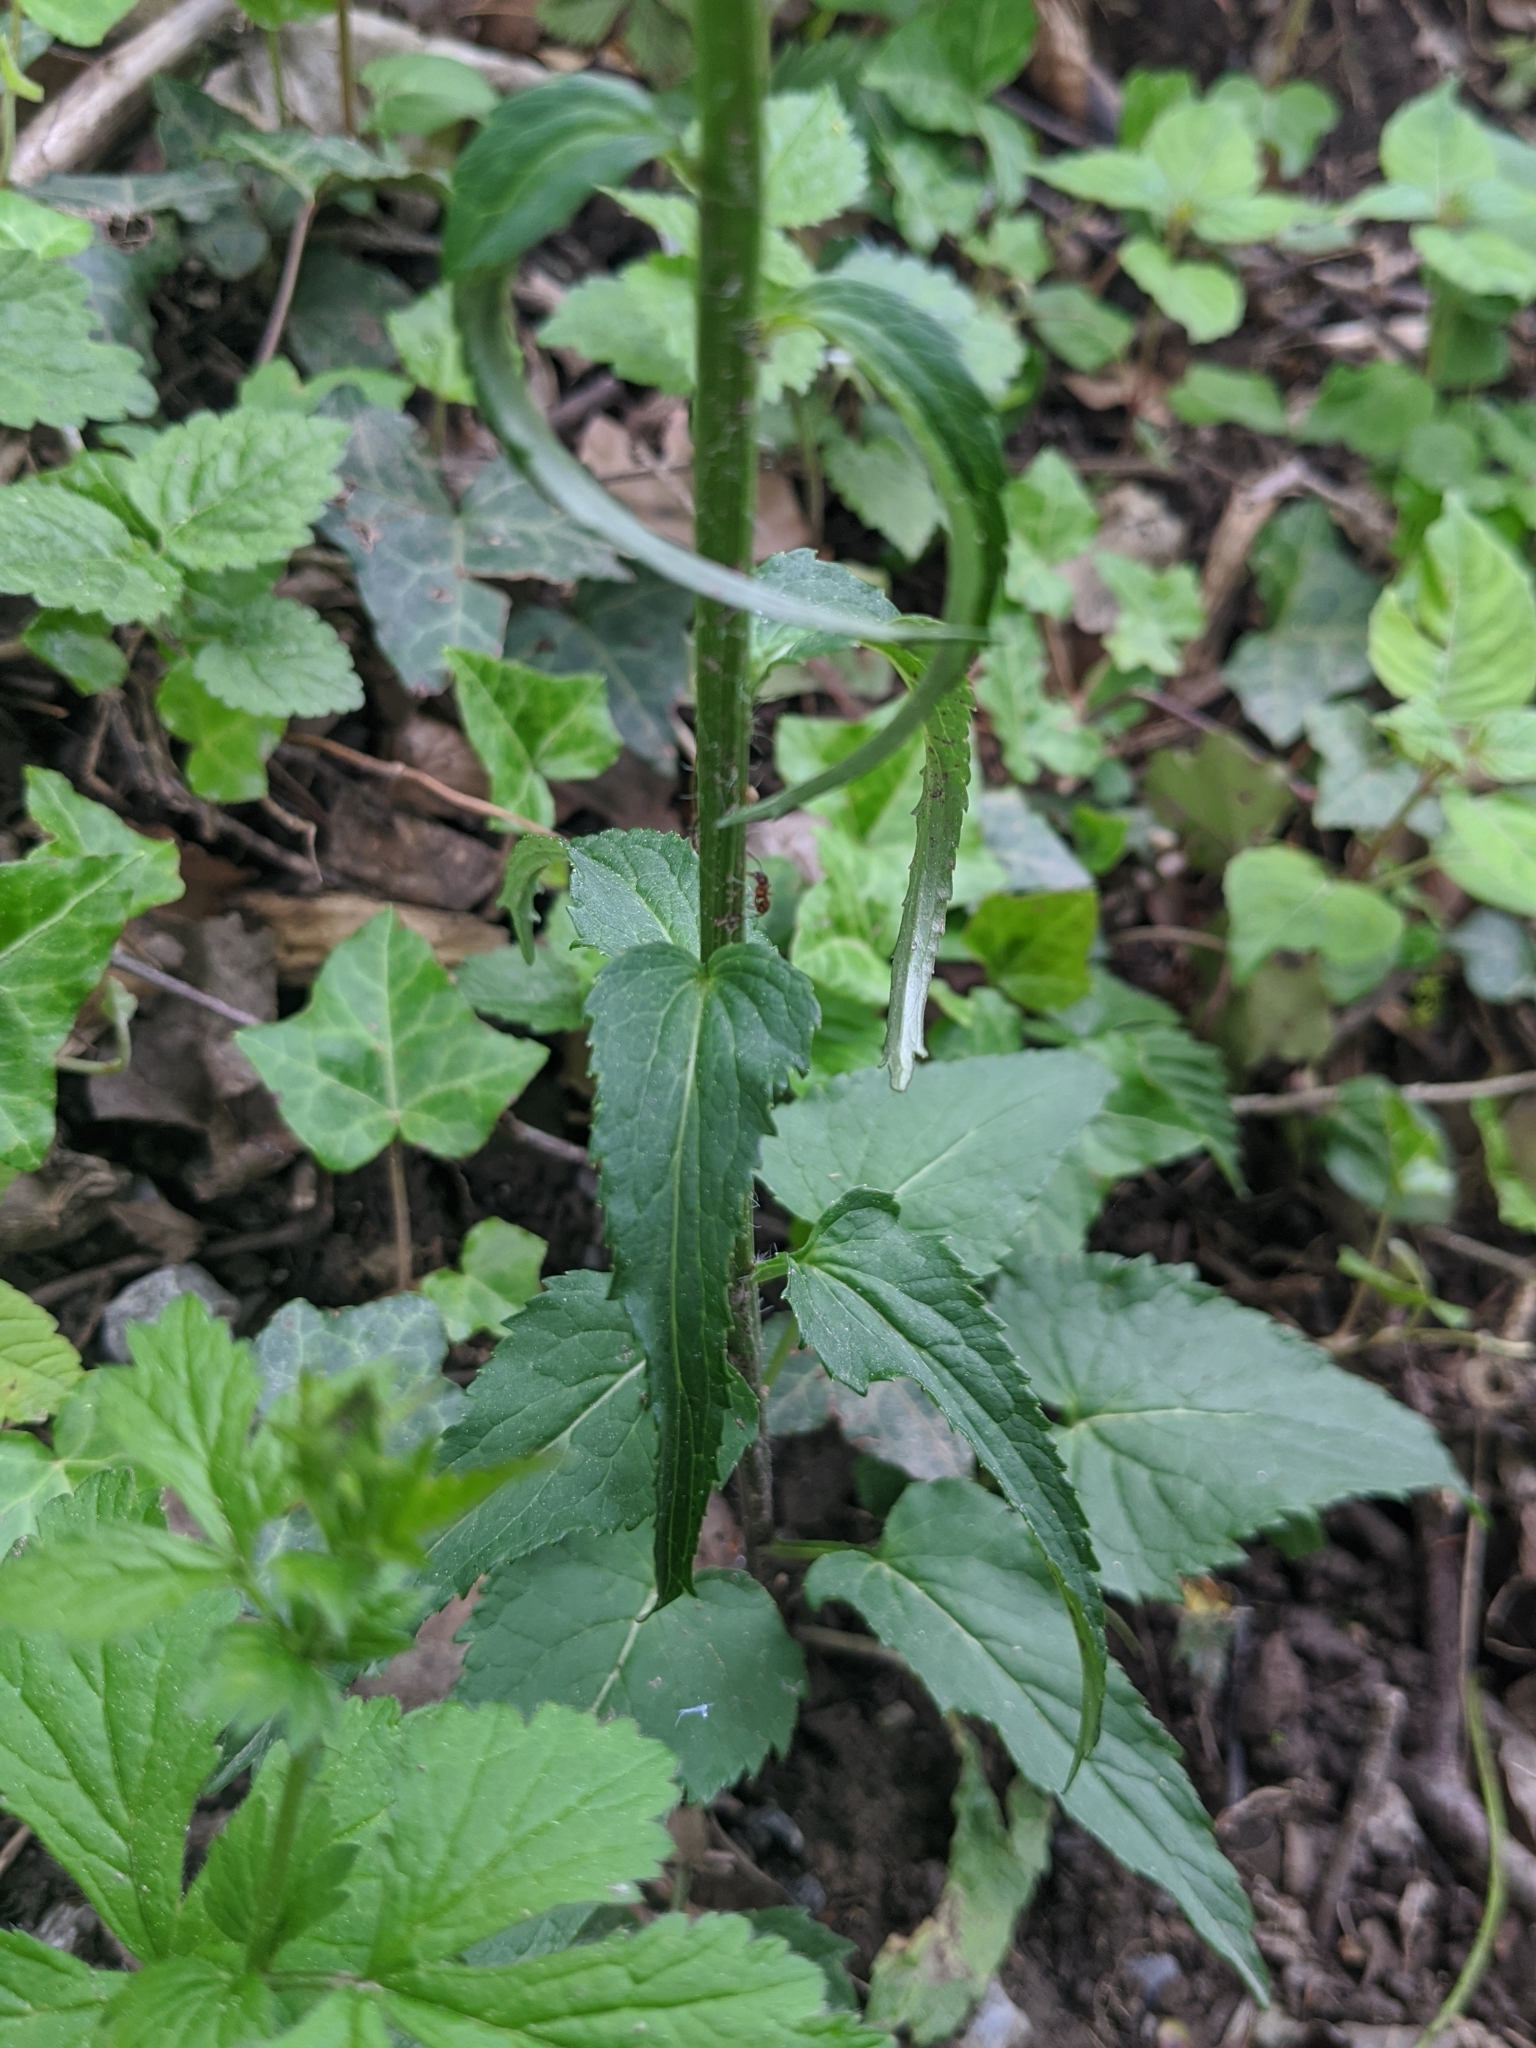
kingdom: Plantae
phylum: Tracheophyta
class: Magnoliopsida
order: Asterales
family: Campanulaceae
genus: Phyteuma
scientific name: Phyteuma spicatum
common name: Spiked rampion
